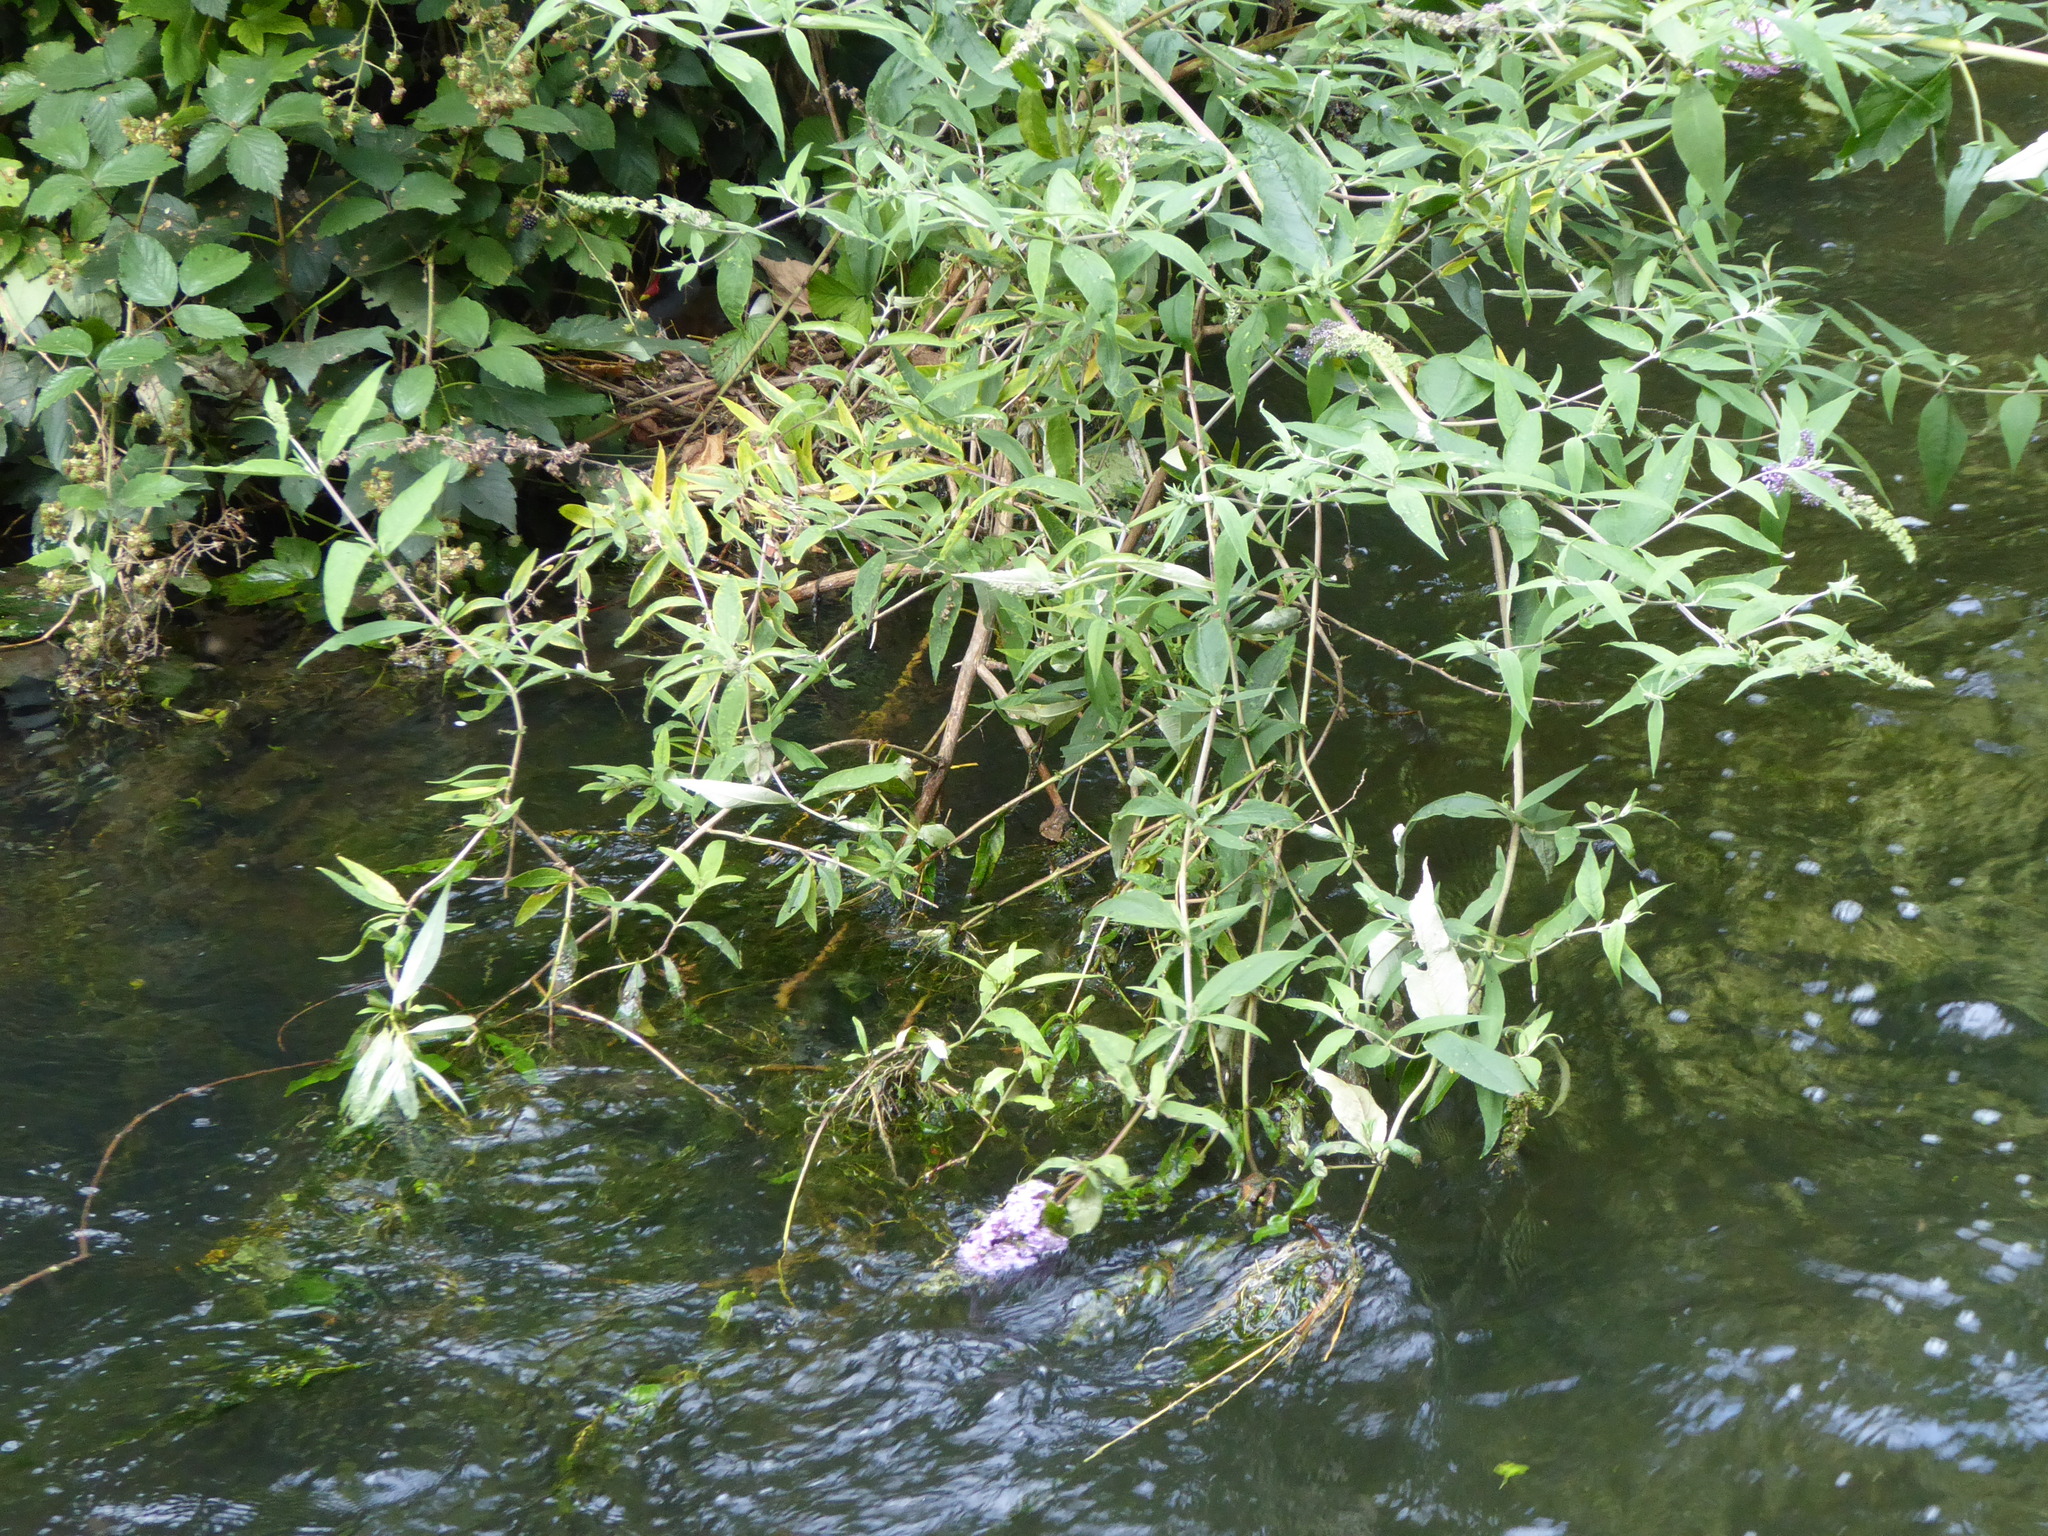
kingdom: Plantae
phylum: Tracheophyta
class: Magnoliopsida
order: Lamiales
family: Scrophulariaceae
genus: Buddleja
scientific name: Buddleja davidii
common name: Butterfly-bush
